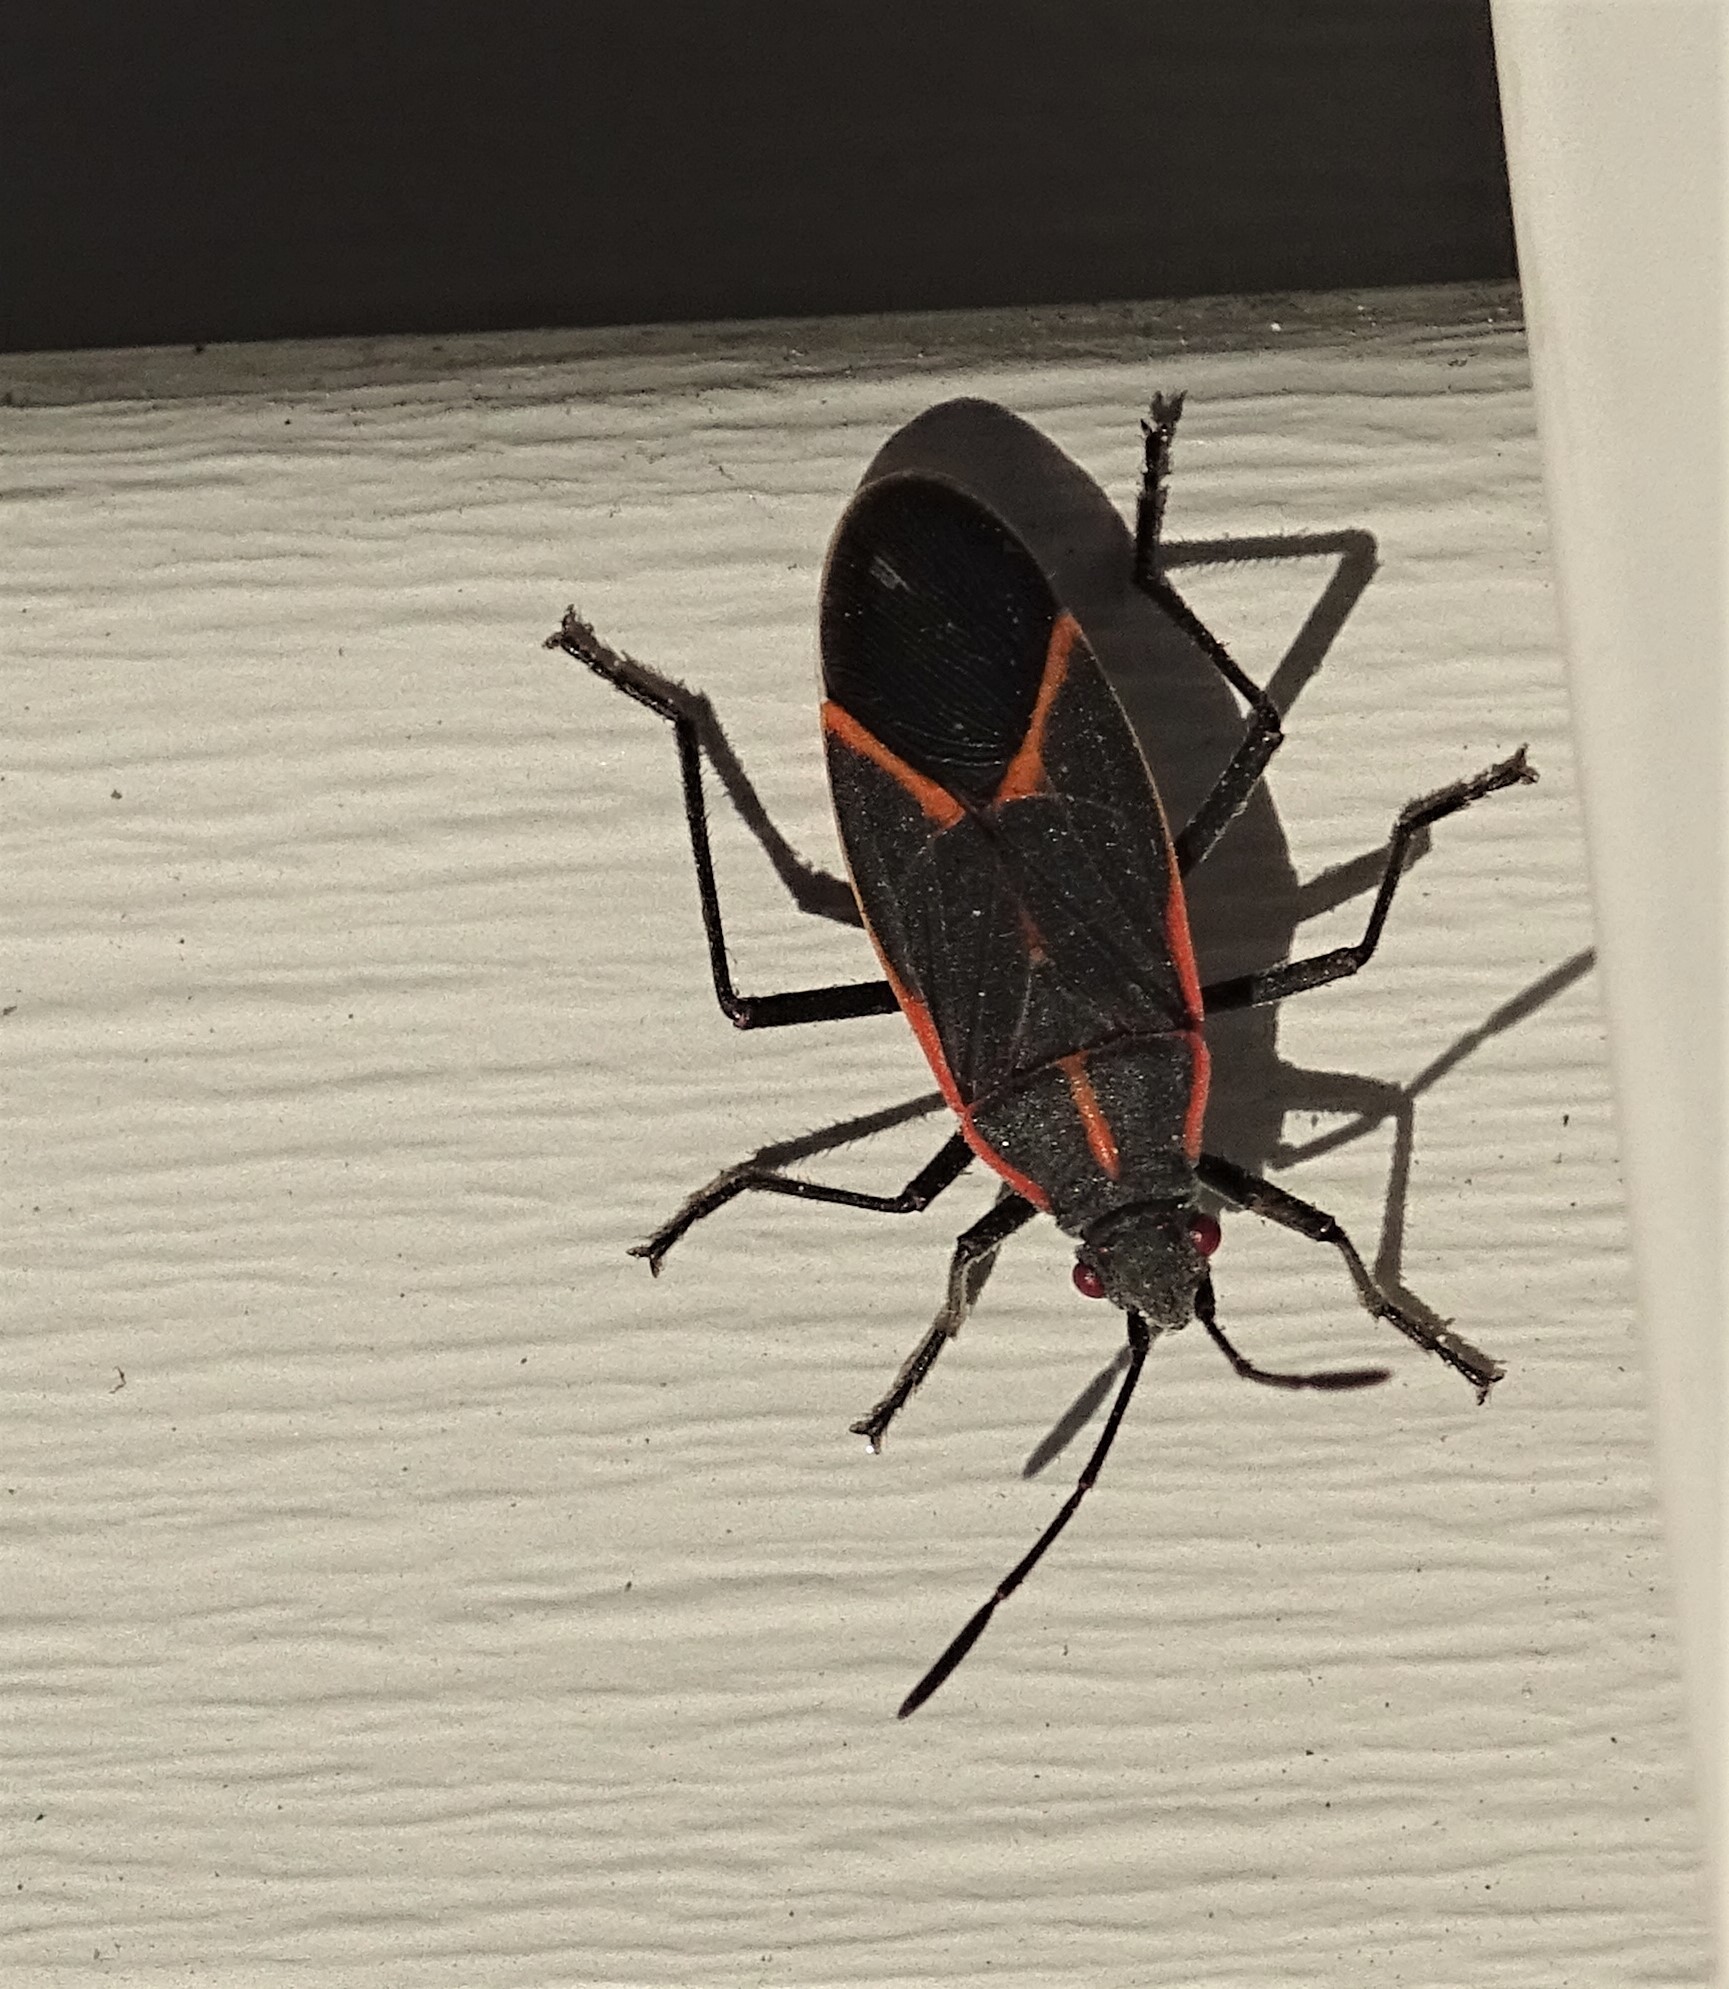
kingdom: Animalia
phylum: Arthropoda
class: Insecta
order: Hemiptera
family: Rhopalidae
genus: Boisea
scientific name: Boisea trivittata
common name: Boxelder bug
